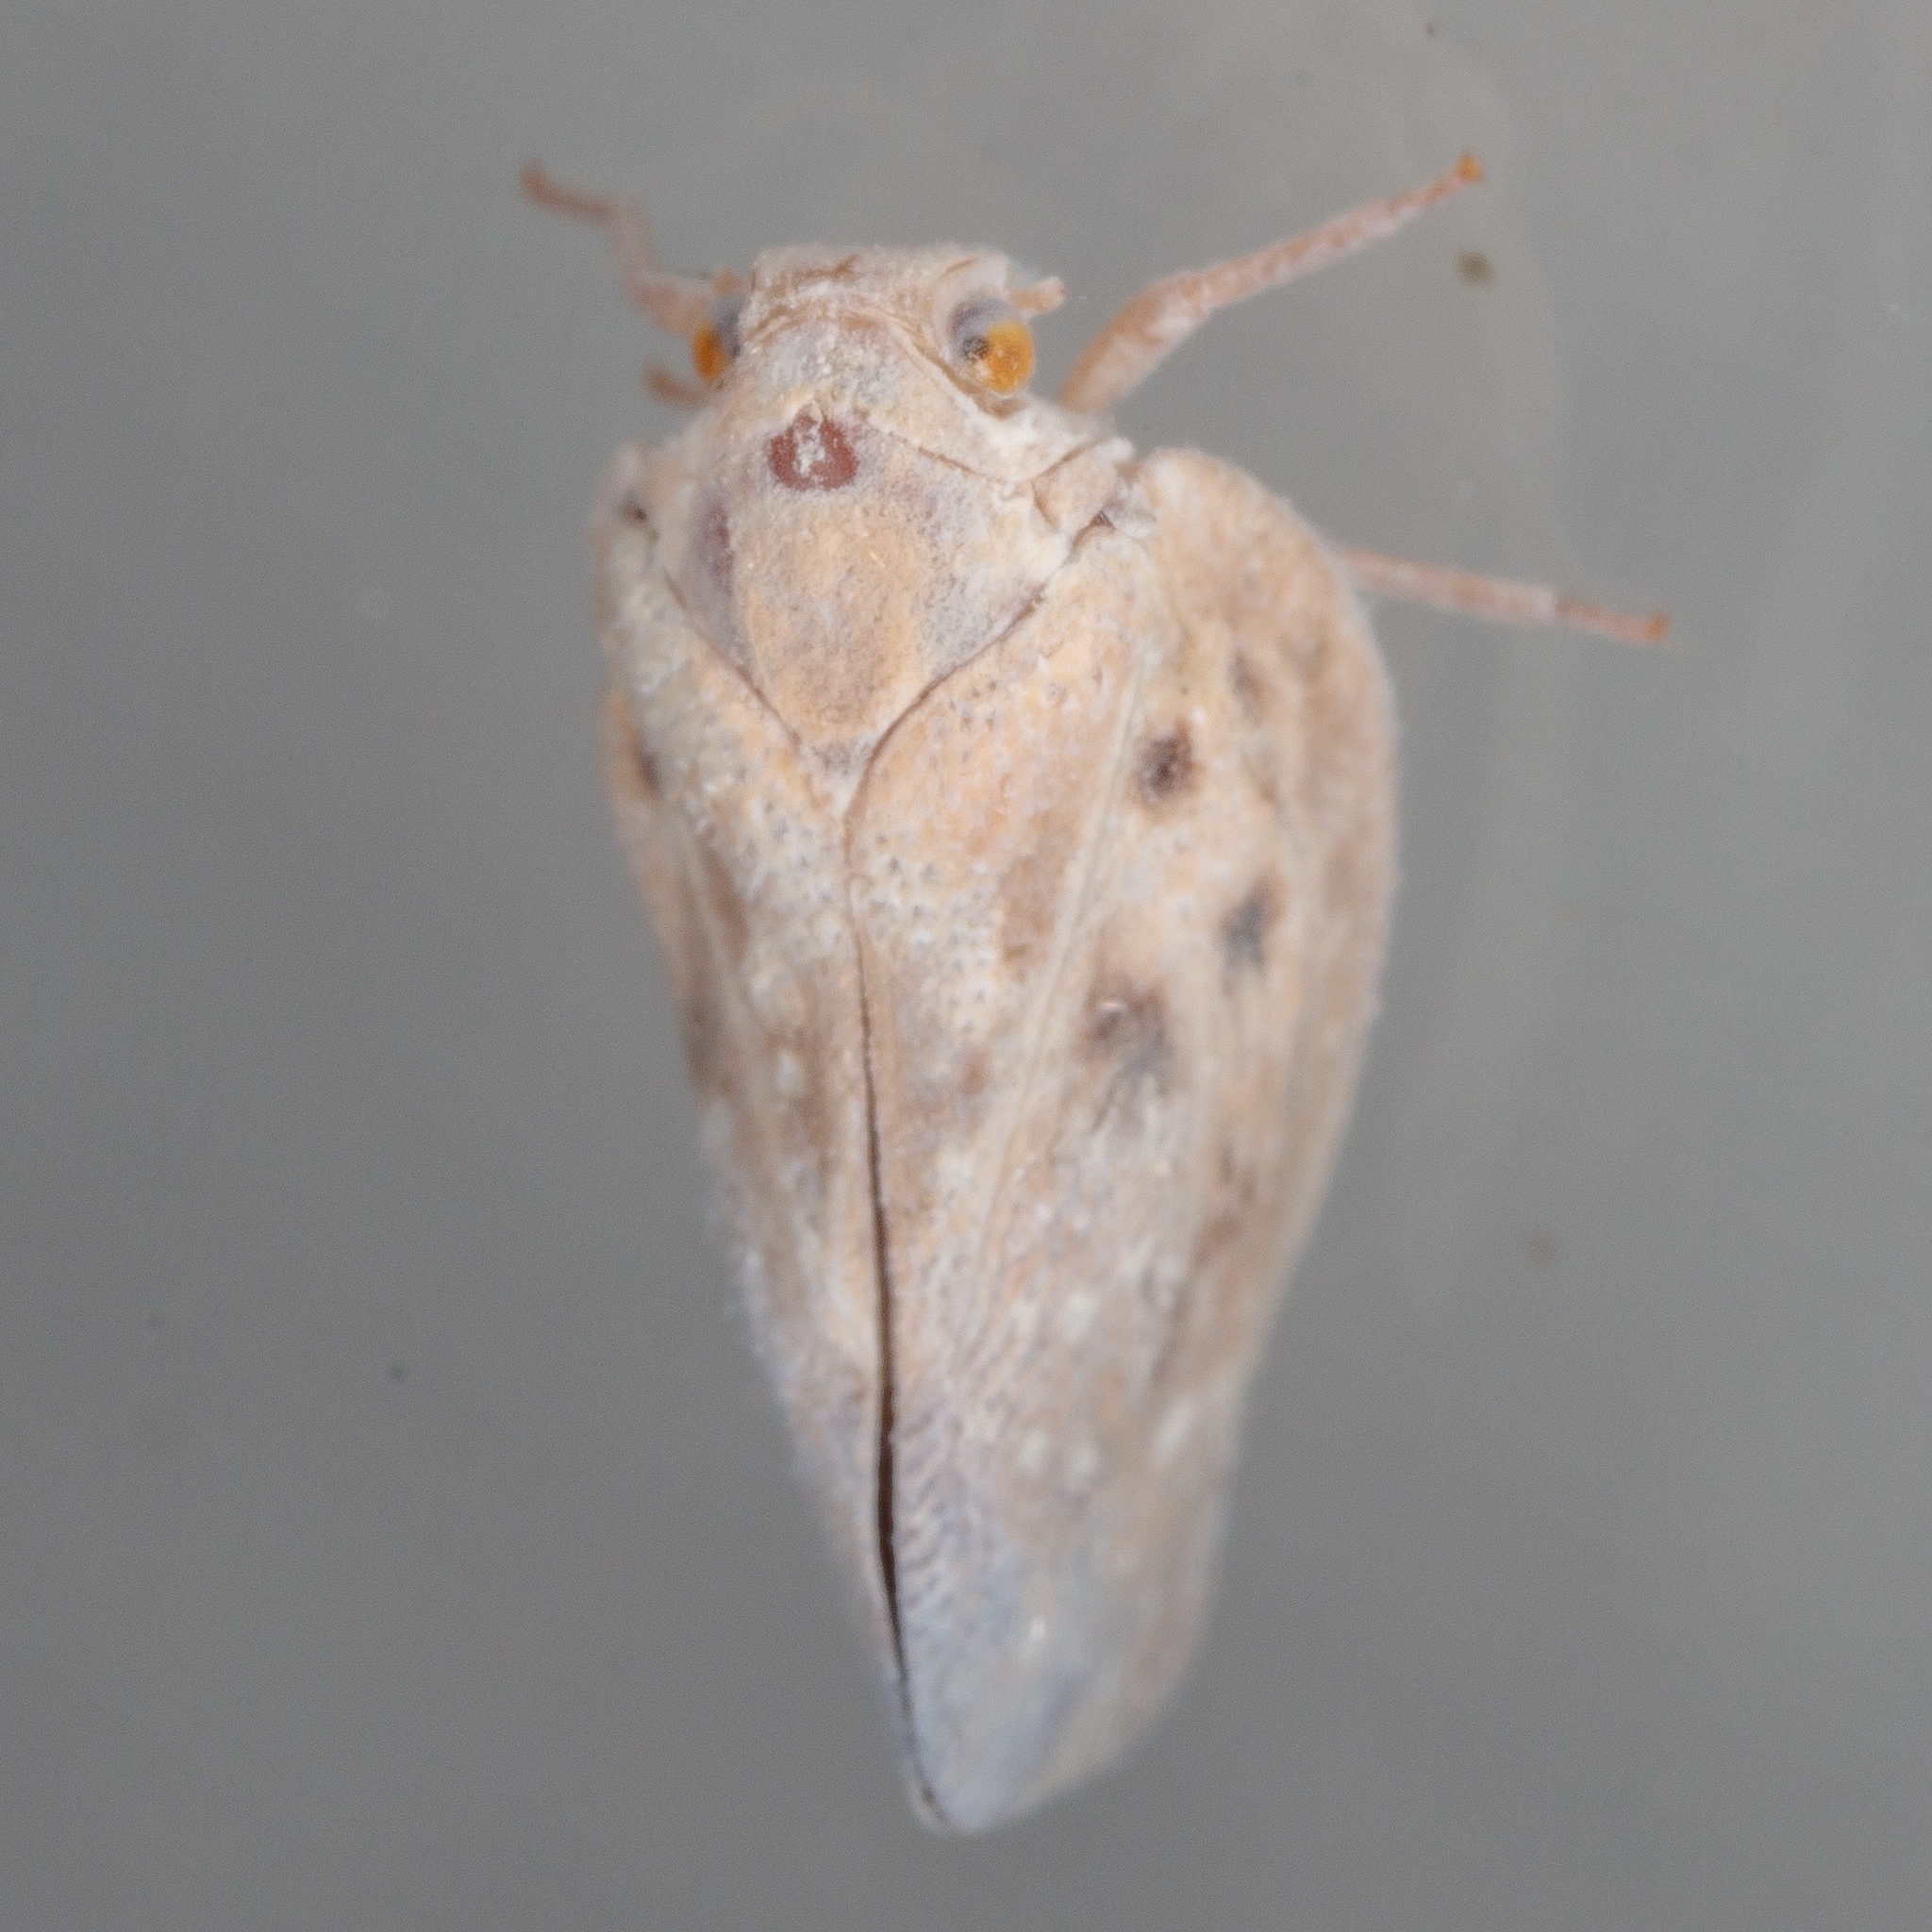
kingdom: Animalia
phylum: Arthropoda
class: Insecta
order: Hemiptera
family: Flatidae
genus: Metcalfa
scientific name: Metcalfa pruinosa
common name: Citrus flatid planthopper
